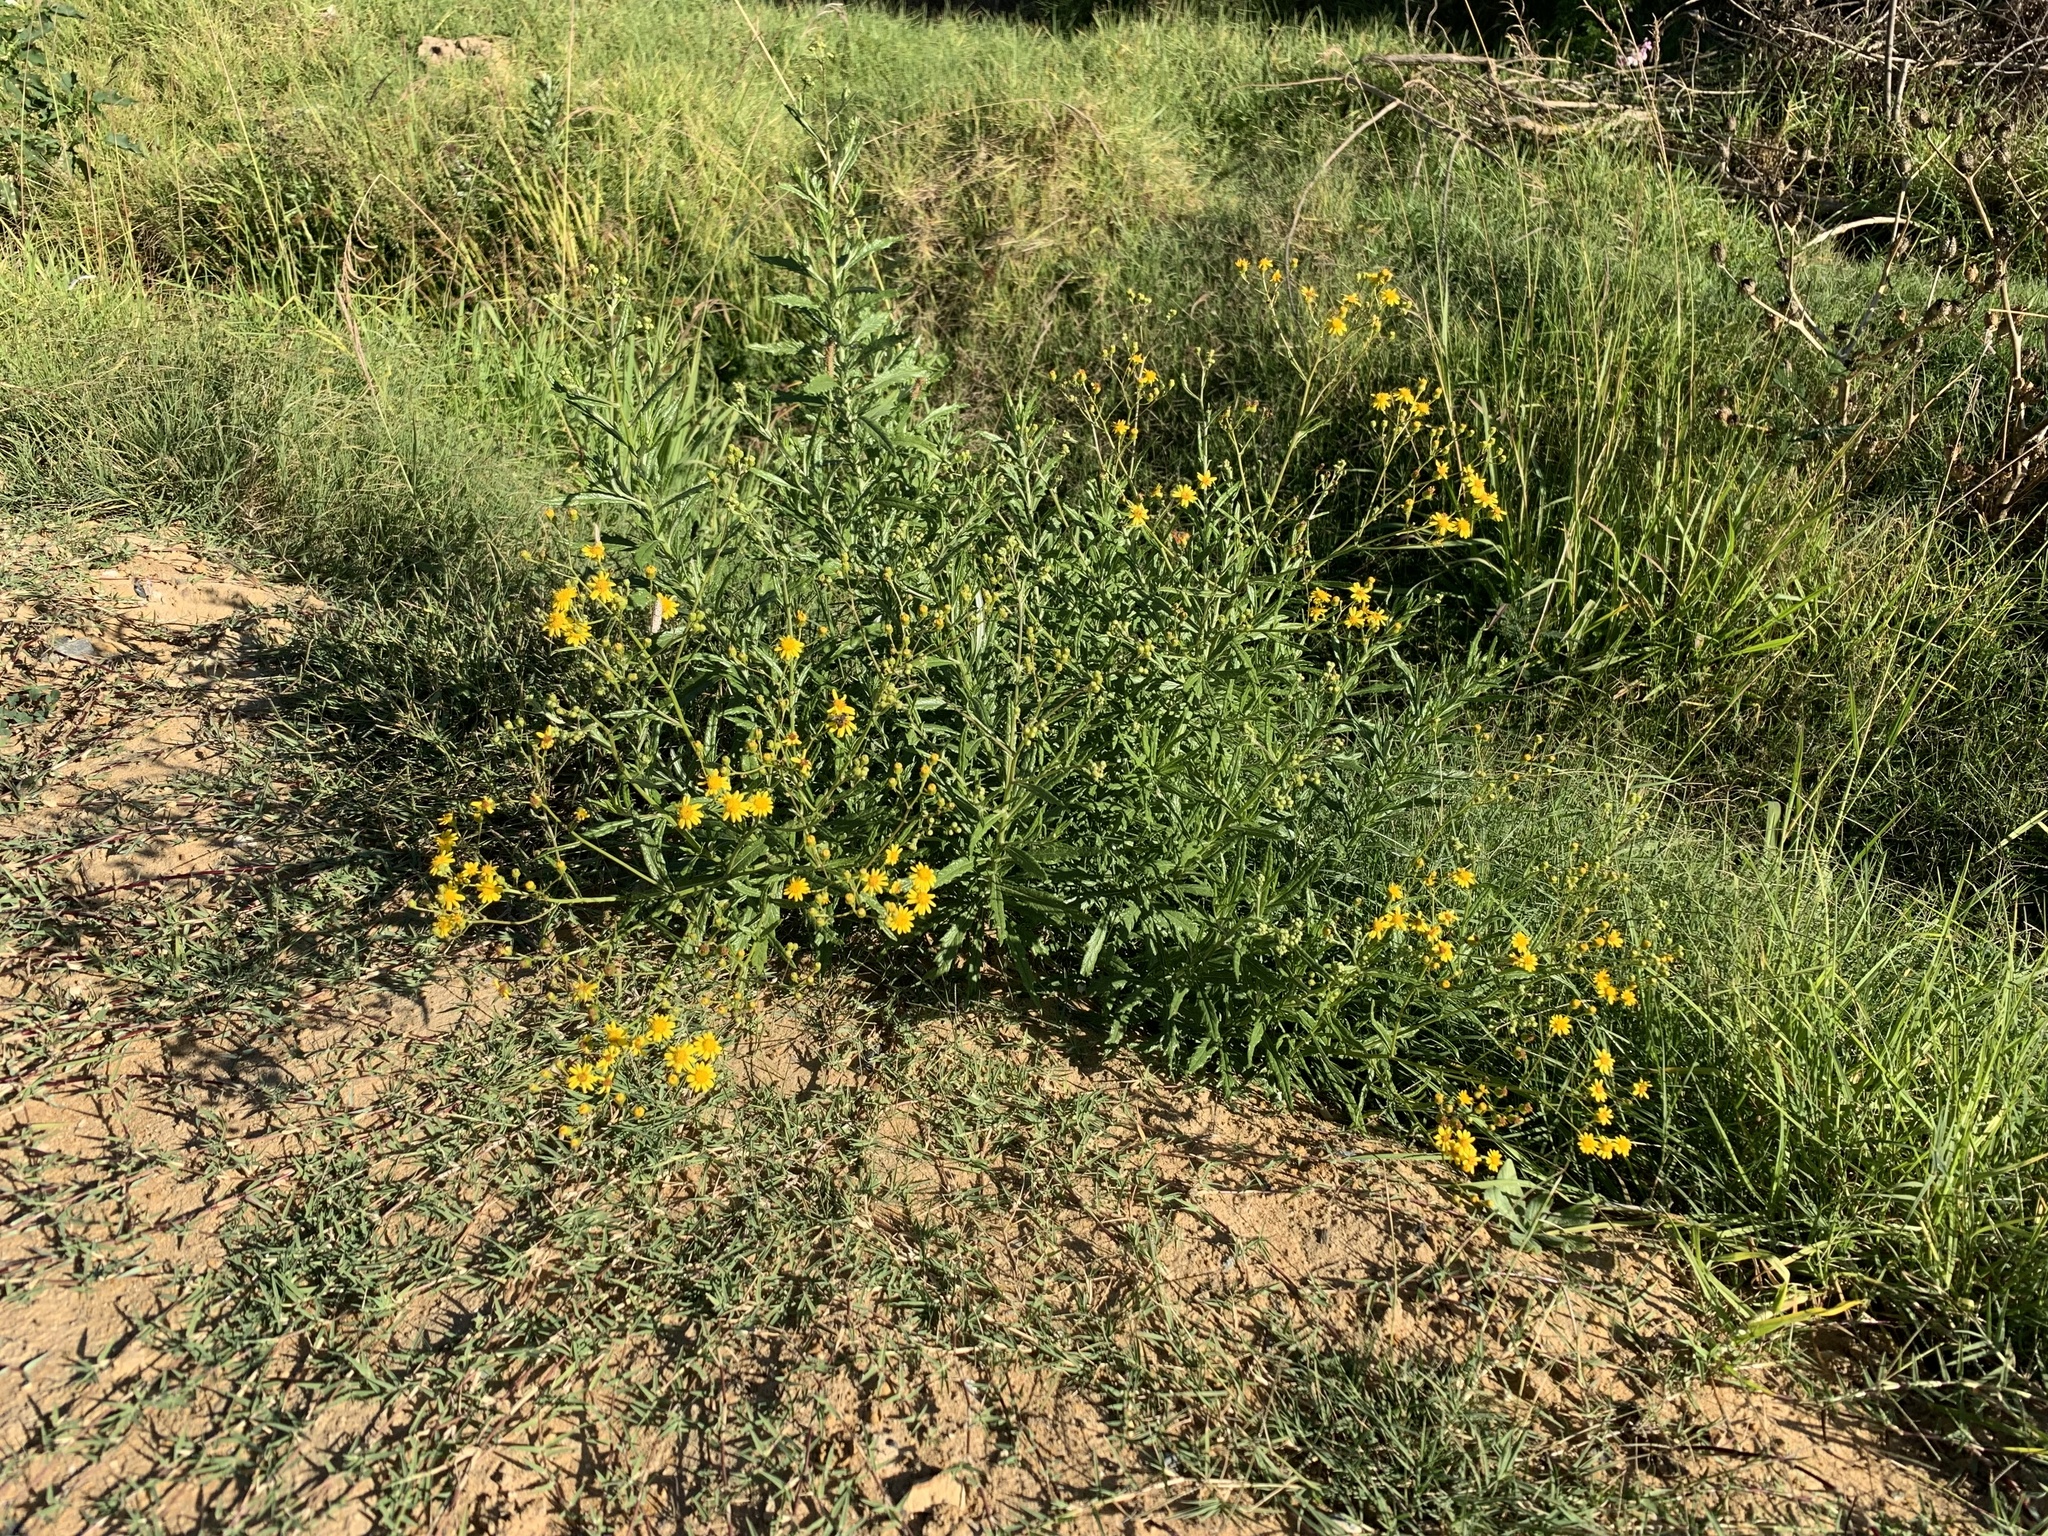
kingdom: Plantae
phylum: Tracheophyta
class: Magnoliopsida
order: Asterales
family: Asteraceae
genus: Senecio
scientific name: Senecio pterophorus
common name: Shoddy ragwort
